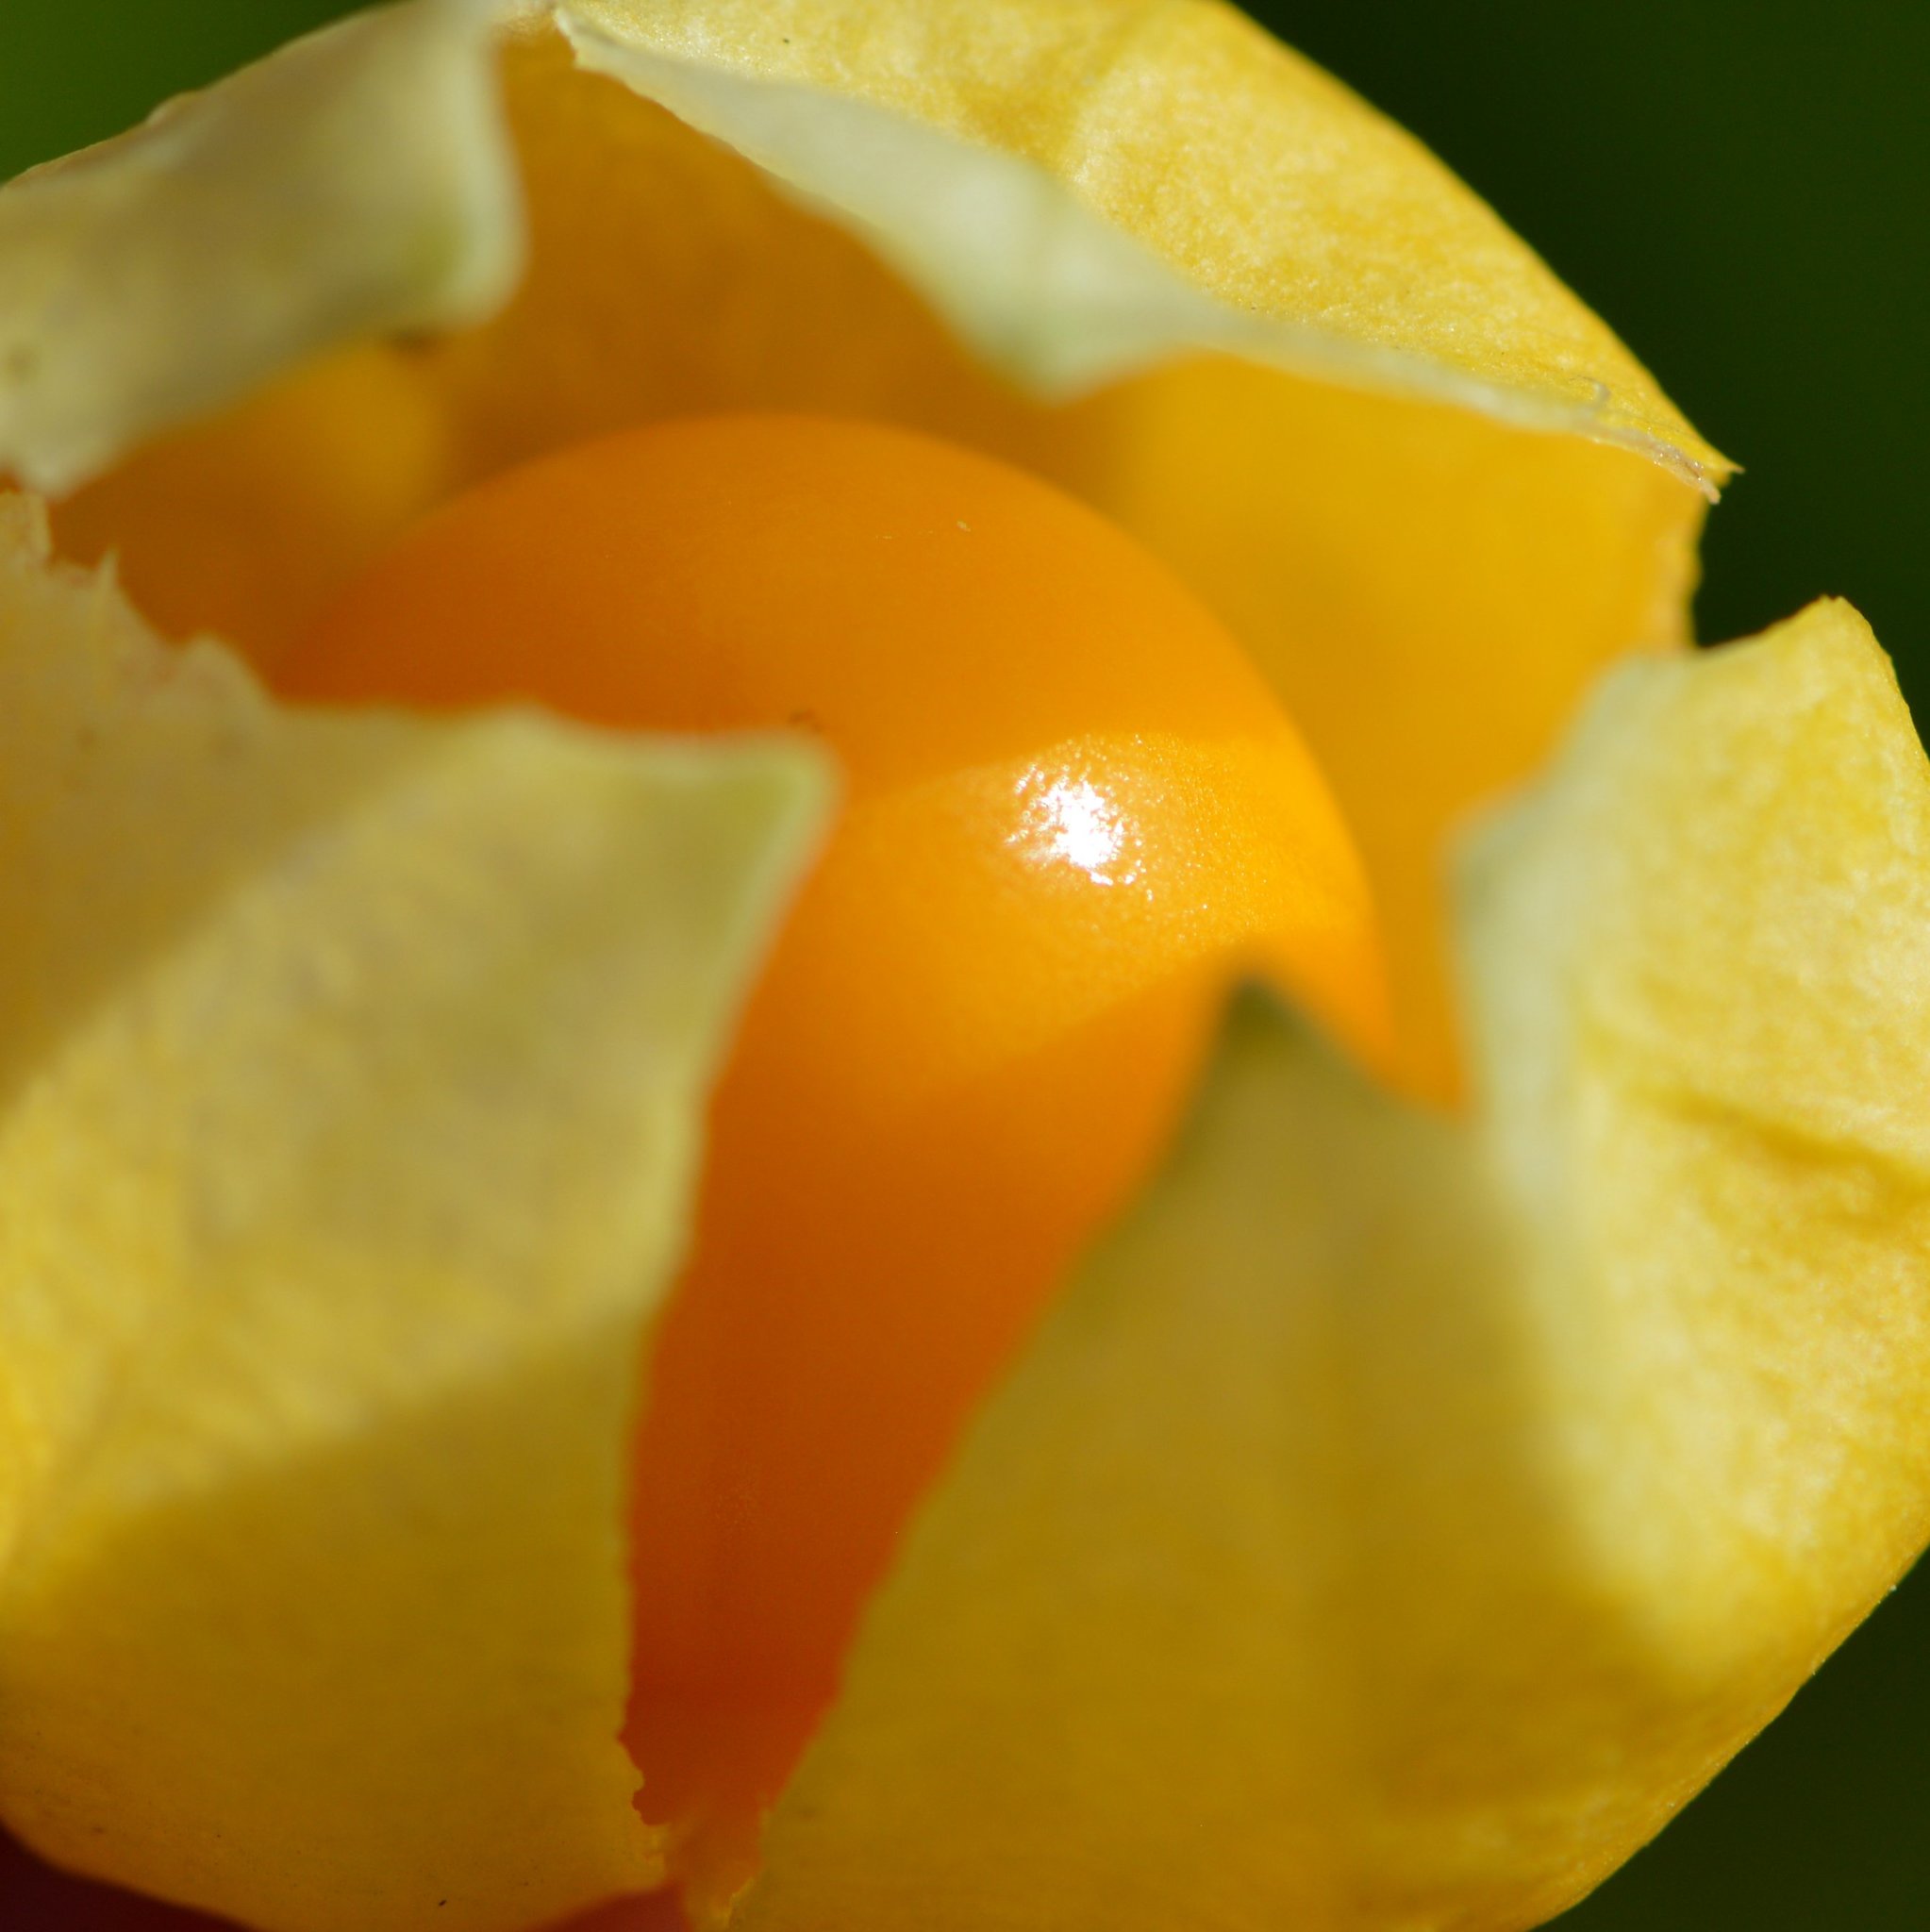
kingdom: Plantae
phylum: Tracheophyta
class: Magnoliopsida
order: Solanales
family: Solanaceae
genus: Physalis
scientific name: Physalis walteri
